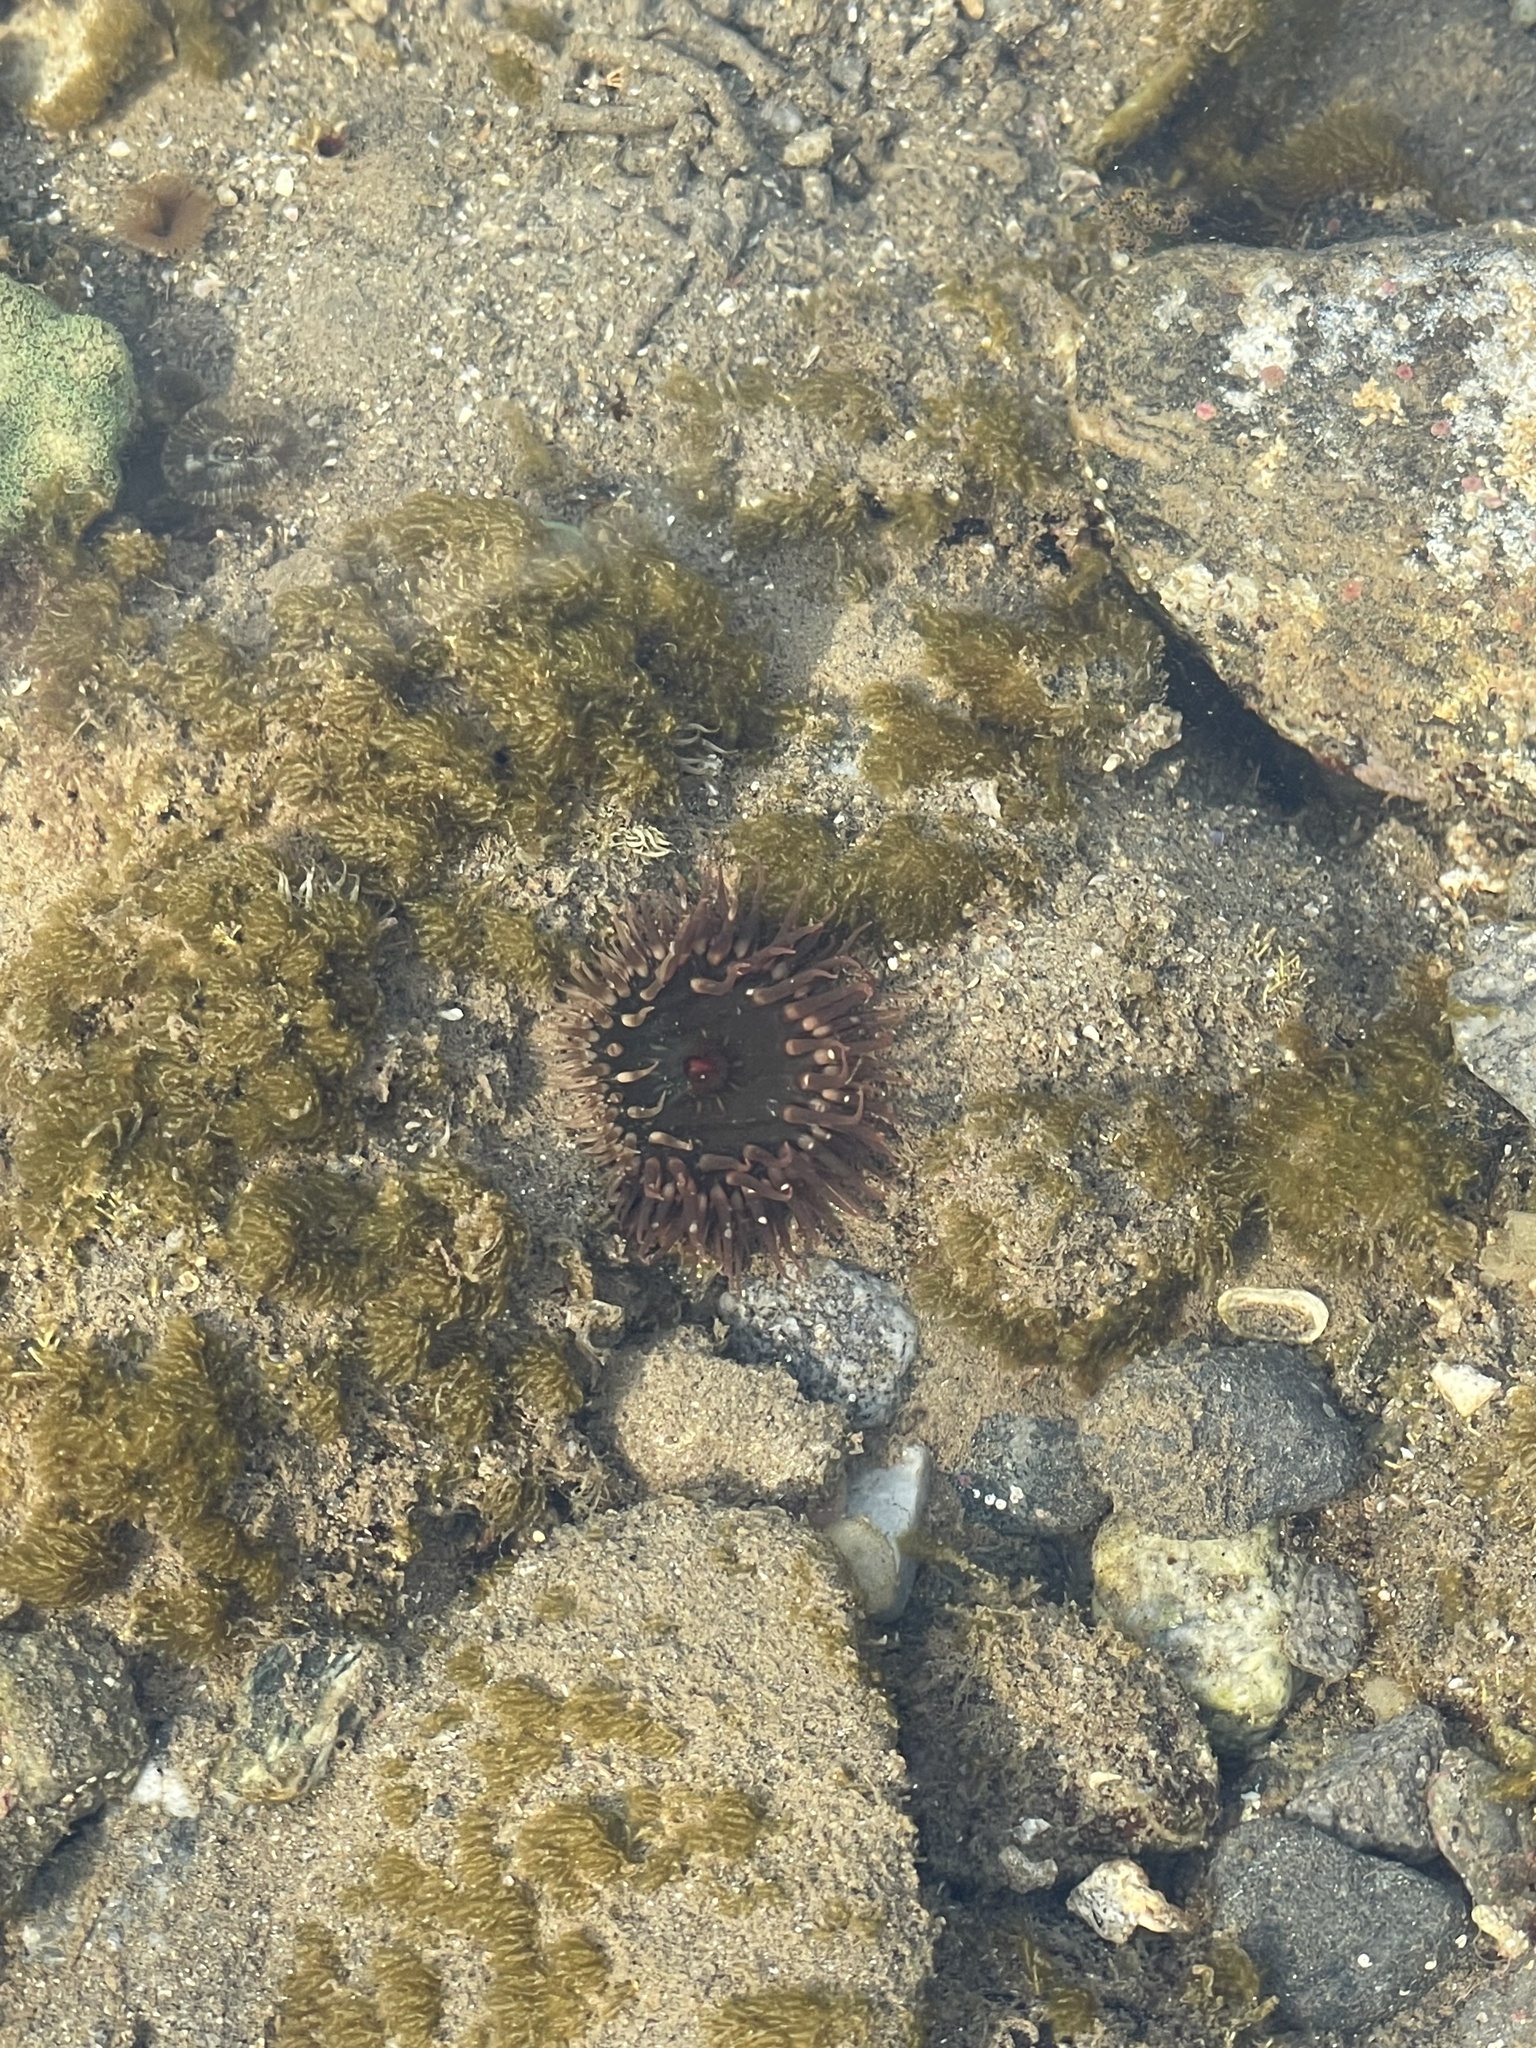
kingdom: Animalia
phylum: Cnidaria
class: Anthozoa
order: Actiniaria
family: Actiniidae
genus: Bunodosoma
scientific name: Bunodosoma californicum
